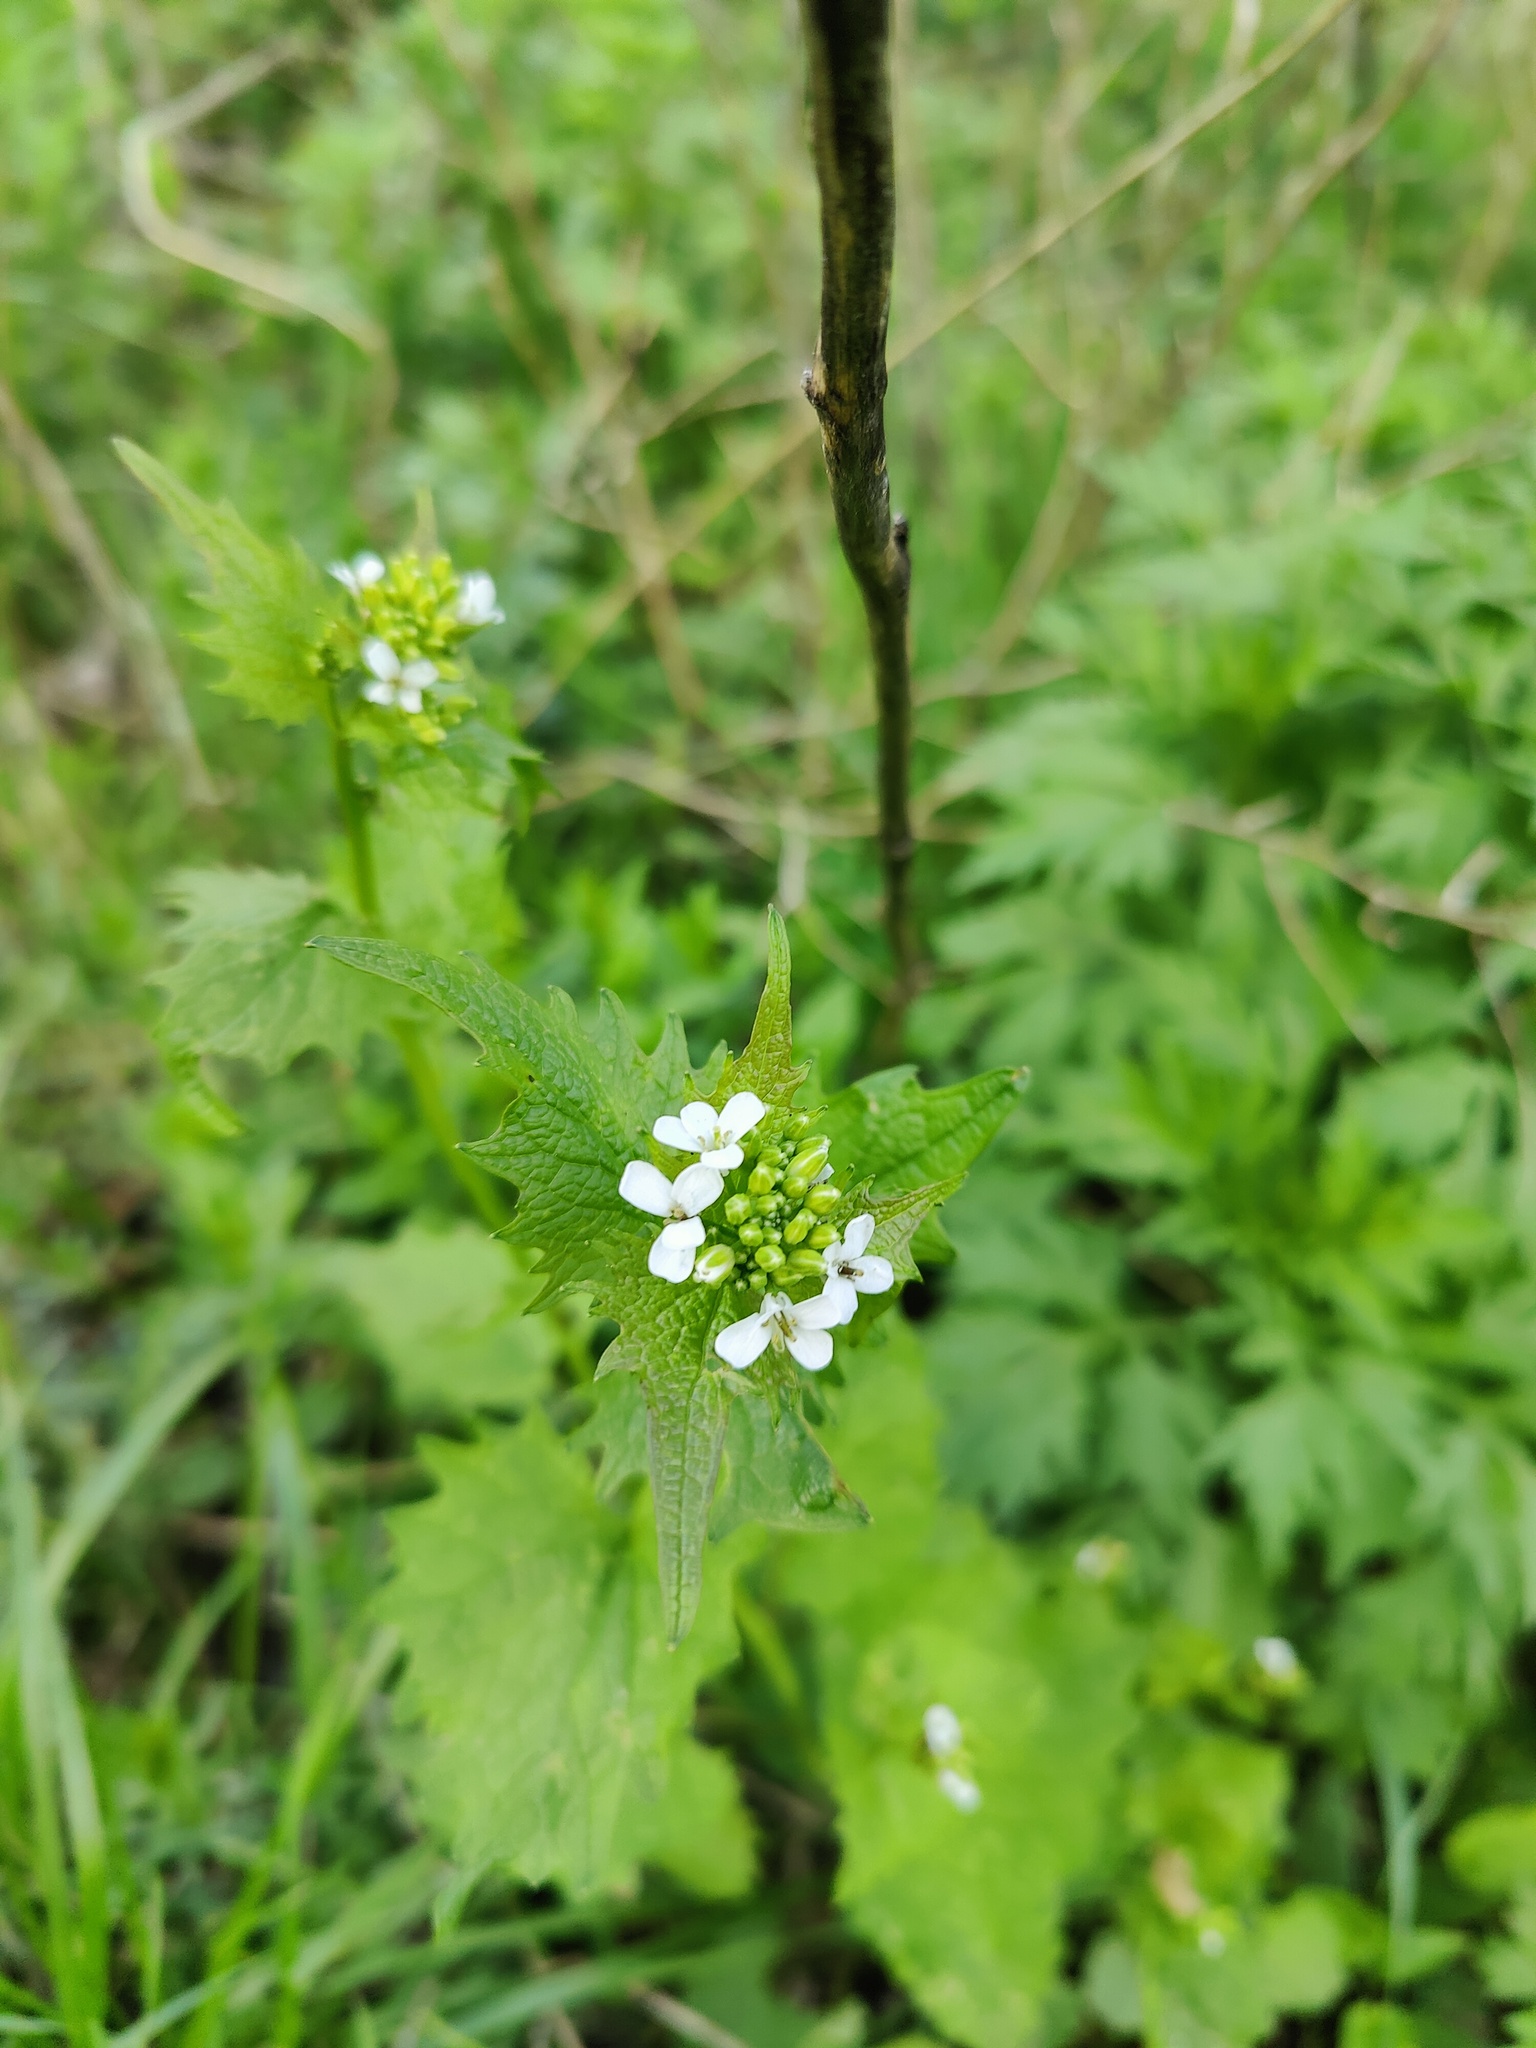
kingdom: Plantae
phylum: Tracheophyta
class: Magnoliopsida
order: Brassicales
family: Brassicaceae
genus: Alliaria
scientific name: Alliaria petiolata
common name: Garlic mustard
